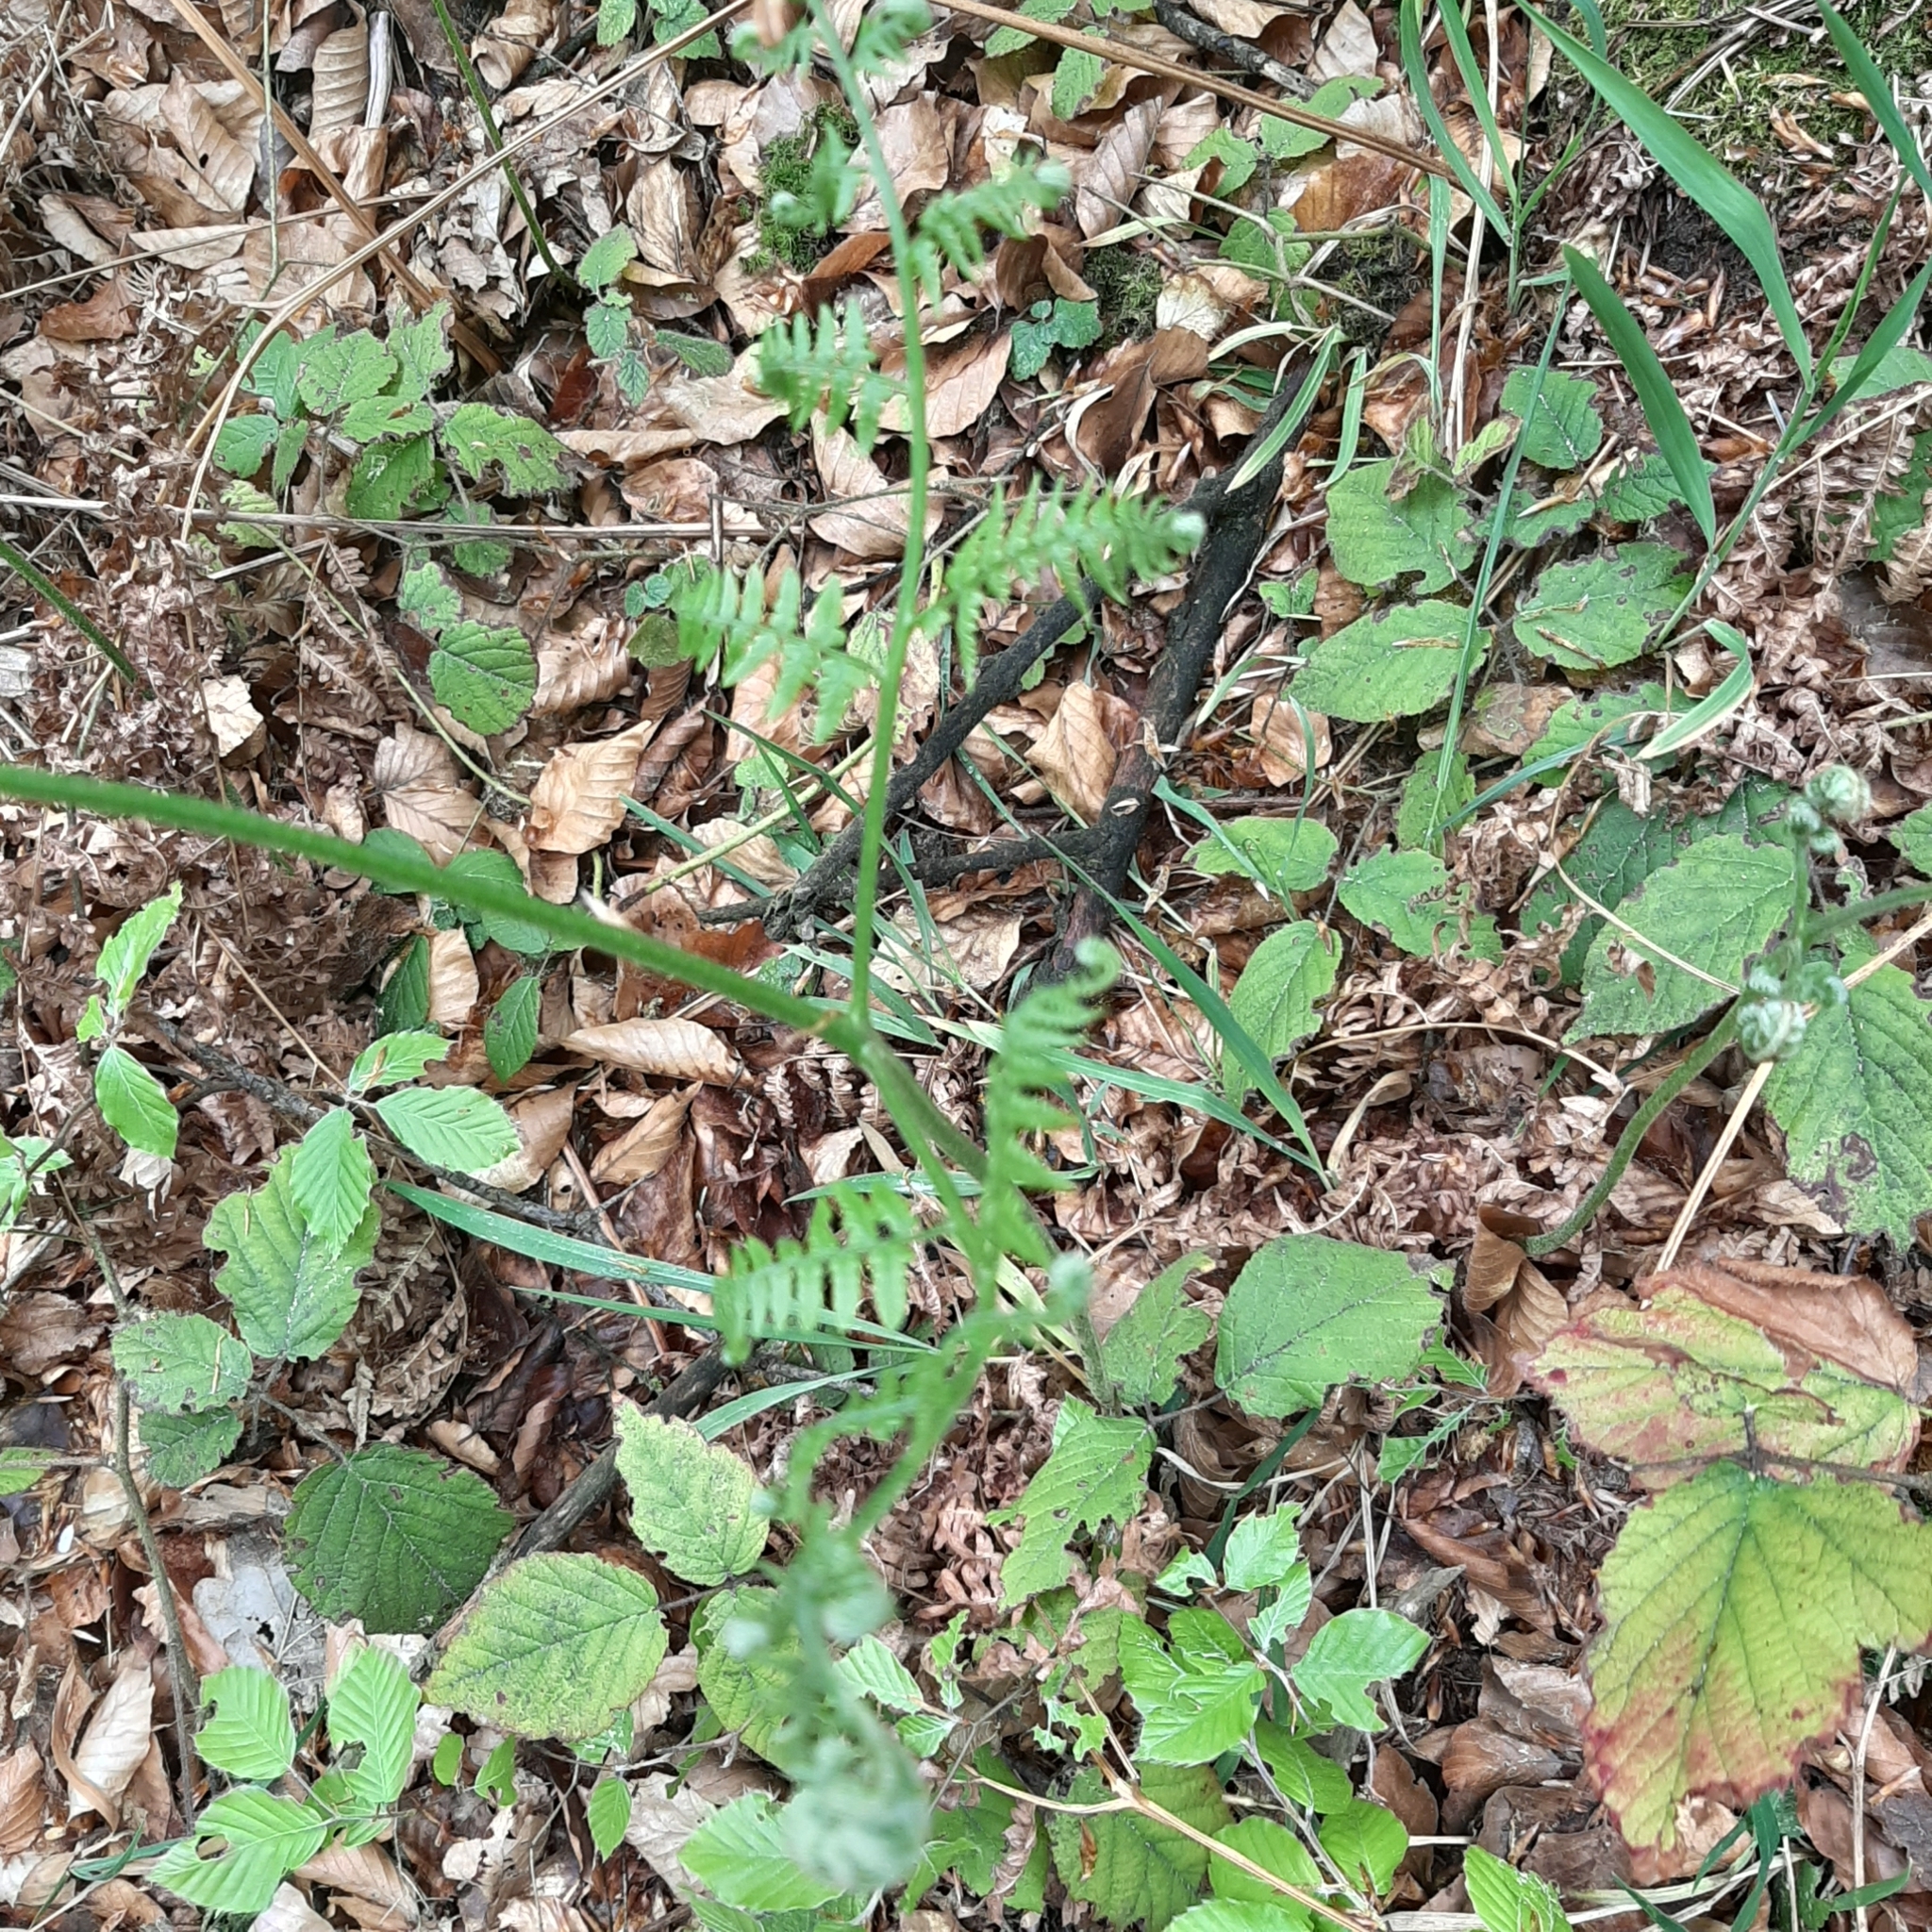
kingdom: Plantae
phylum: Tracheophyta
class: Polypodiopsida
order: Polypodiales
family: Dennstaedtiaceae
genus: Pteridium
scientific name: Pteridium aquilinum
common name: Bracken
